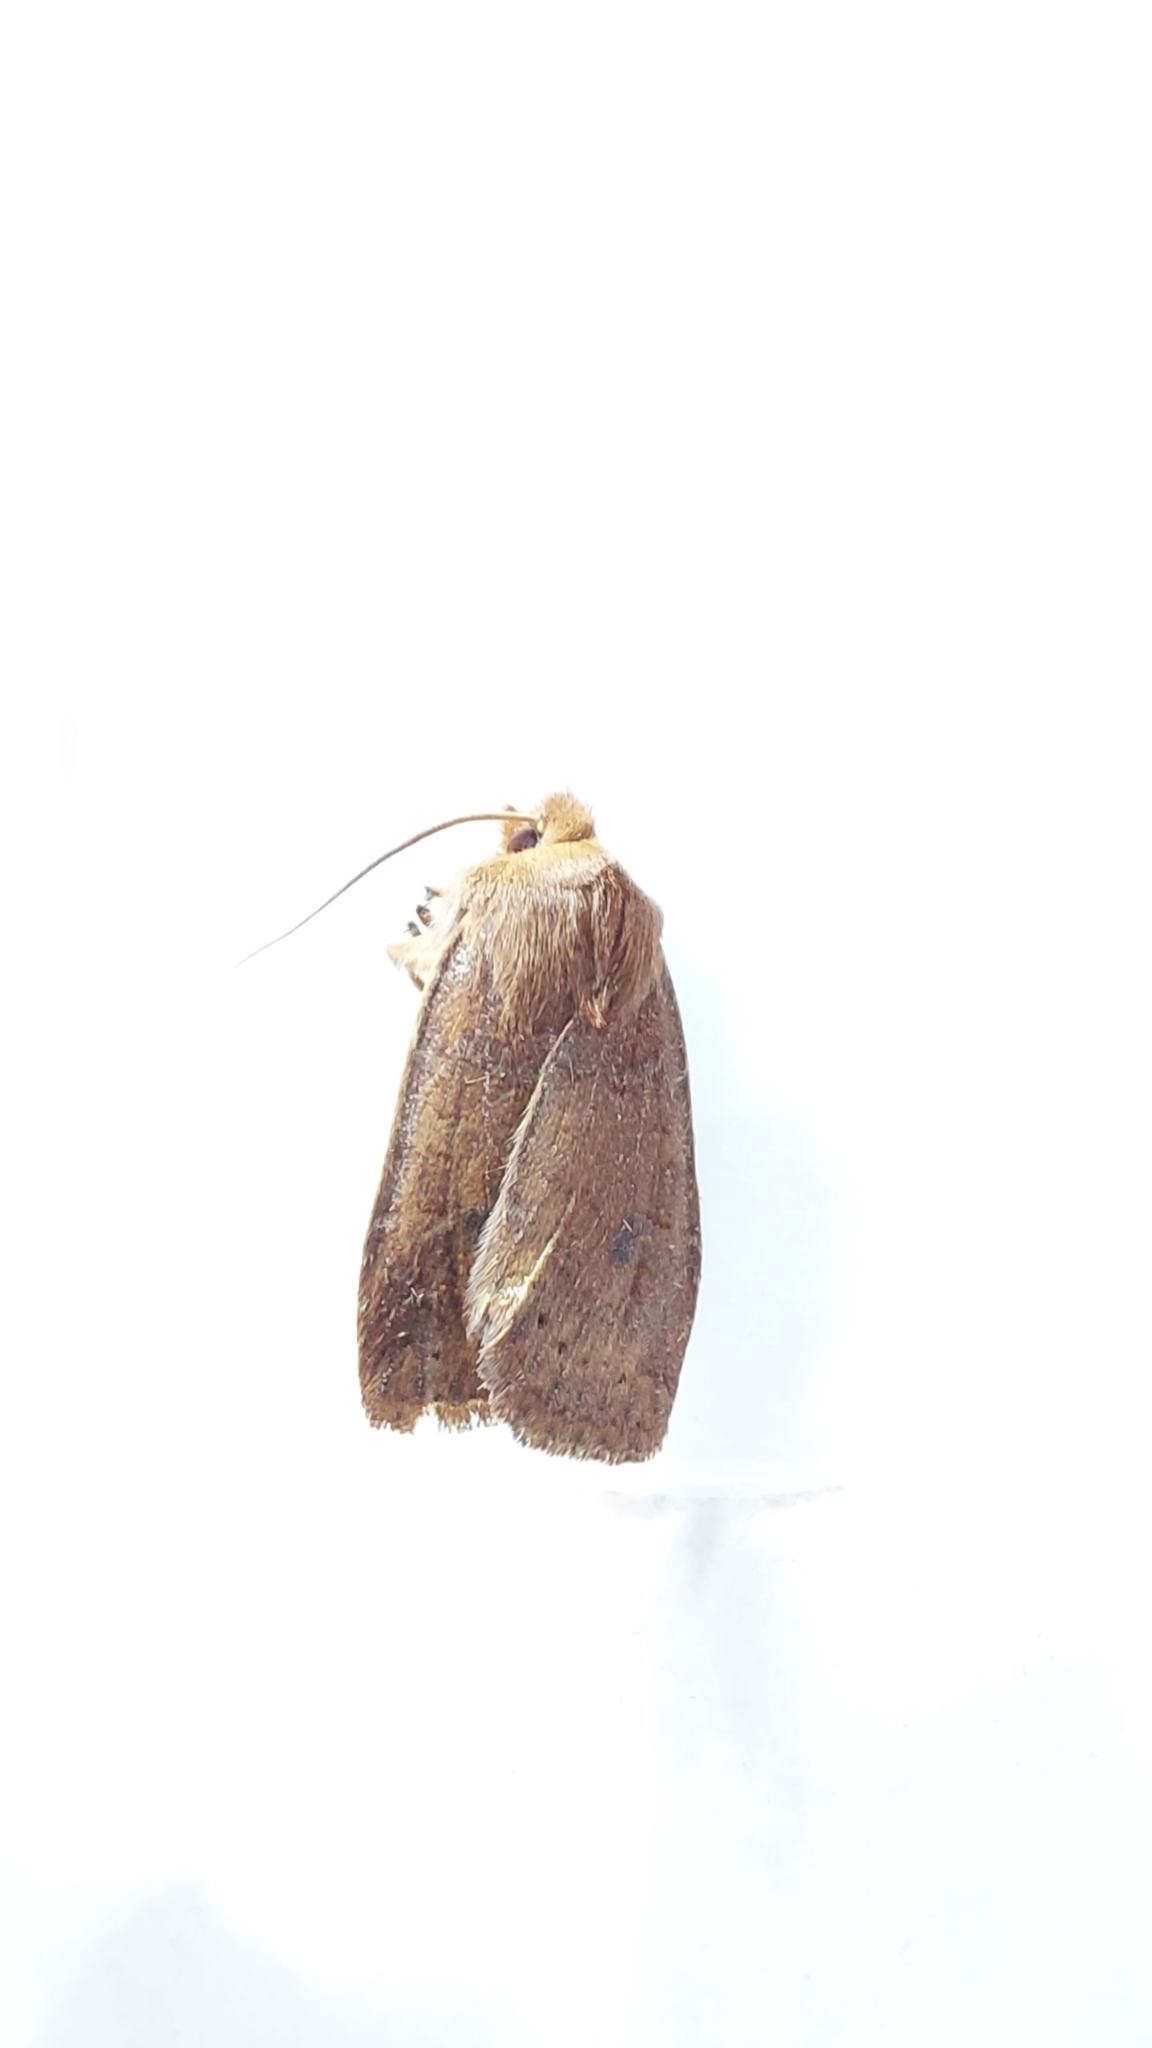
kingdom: Animalia
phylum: Arthropoda
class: Insecta
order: Lepidoptera
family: Noctuidae
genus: Conistra
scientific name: Conistra vaccinii
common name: Chestnut
